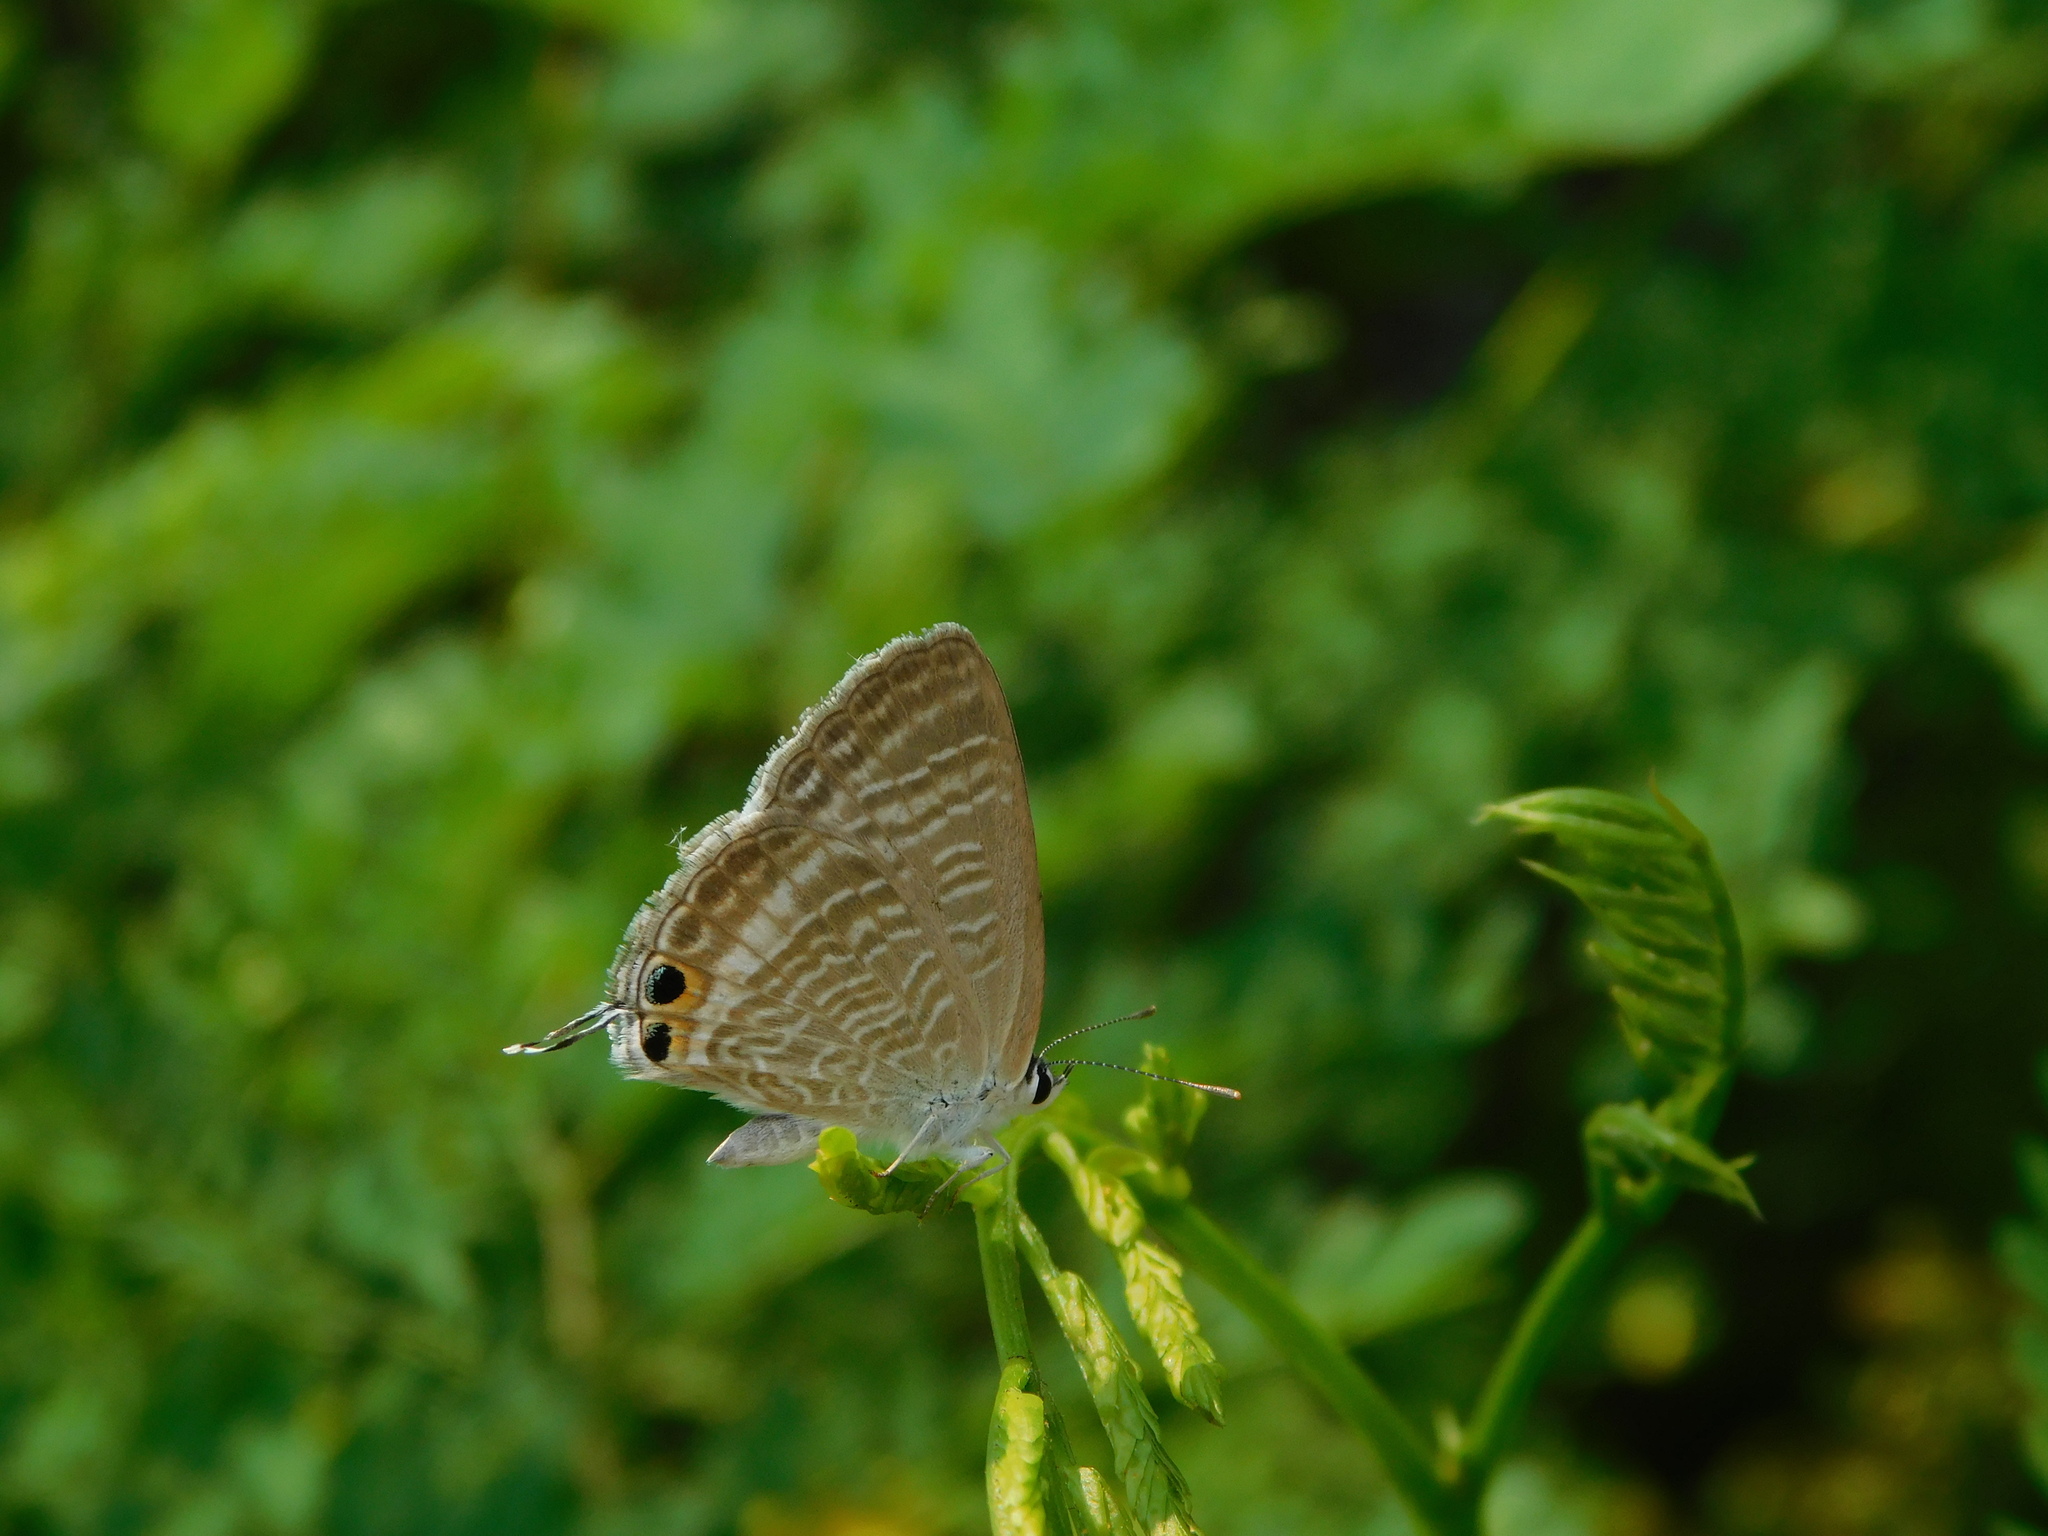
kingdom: Animalia
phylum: Arthropoda
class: Insecta
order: Lepidoptera
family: Lycaenidae
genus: Lampides
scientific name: Lampides boeticus
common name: Long-tailed blue
